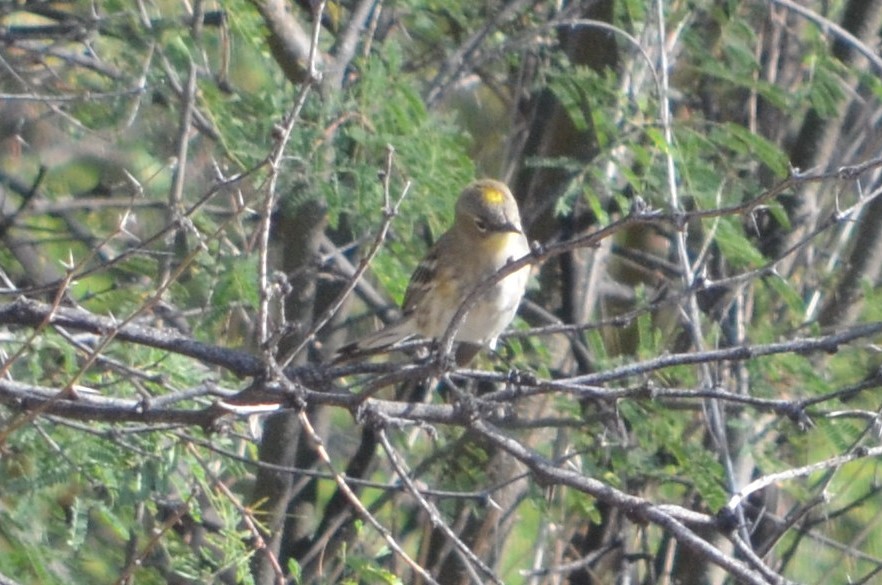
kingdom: Animalia
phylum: Chordata
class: Aves
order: Passeriformes
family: Parulidae
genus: Setophaga
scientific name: Setophaga coronata
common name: Myrtle warbler
